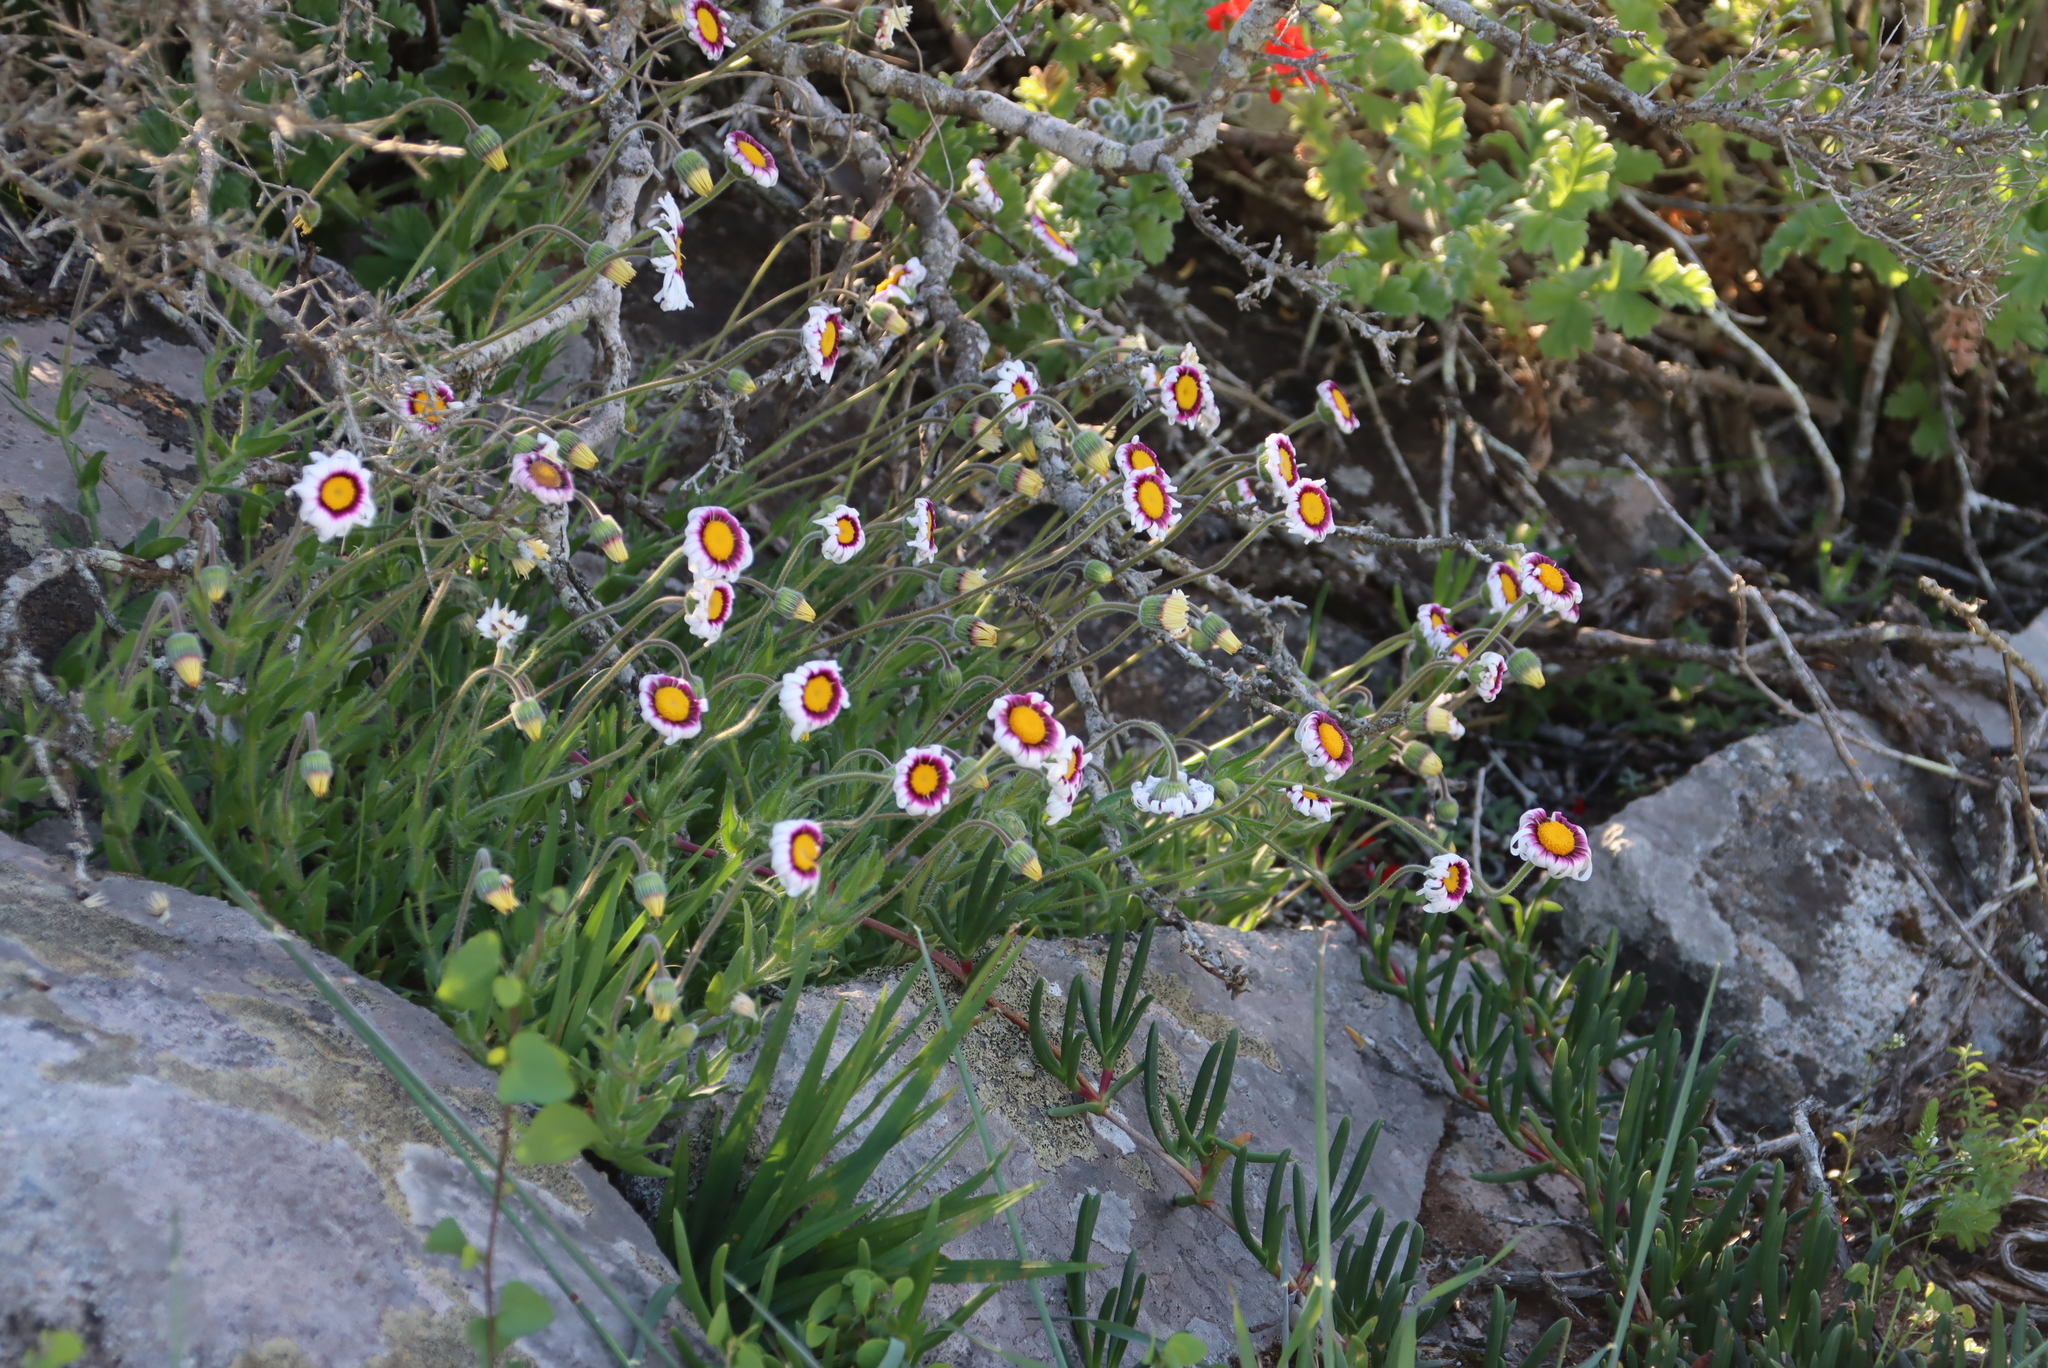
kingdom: Plantae
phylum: Tracheophyta
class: Magnoliopsida
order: Asterales
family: Asteraceae
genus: Felicia
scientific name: Felicia elongata
